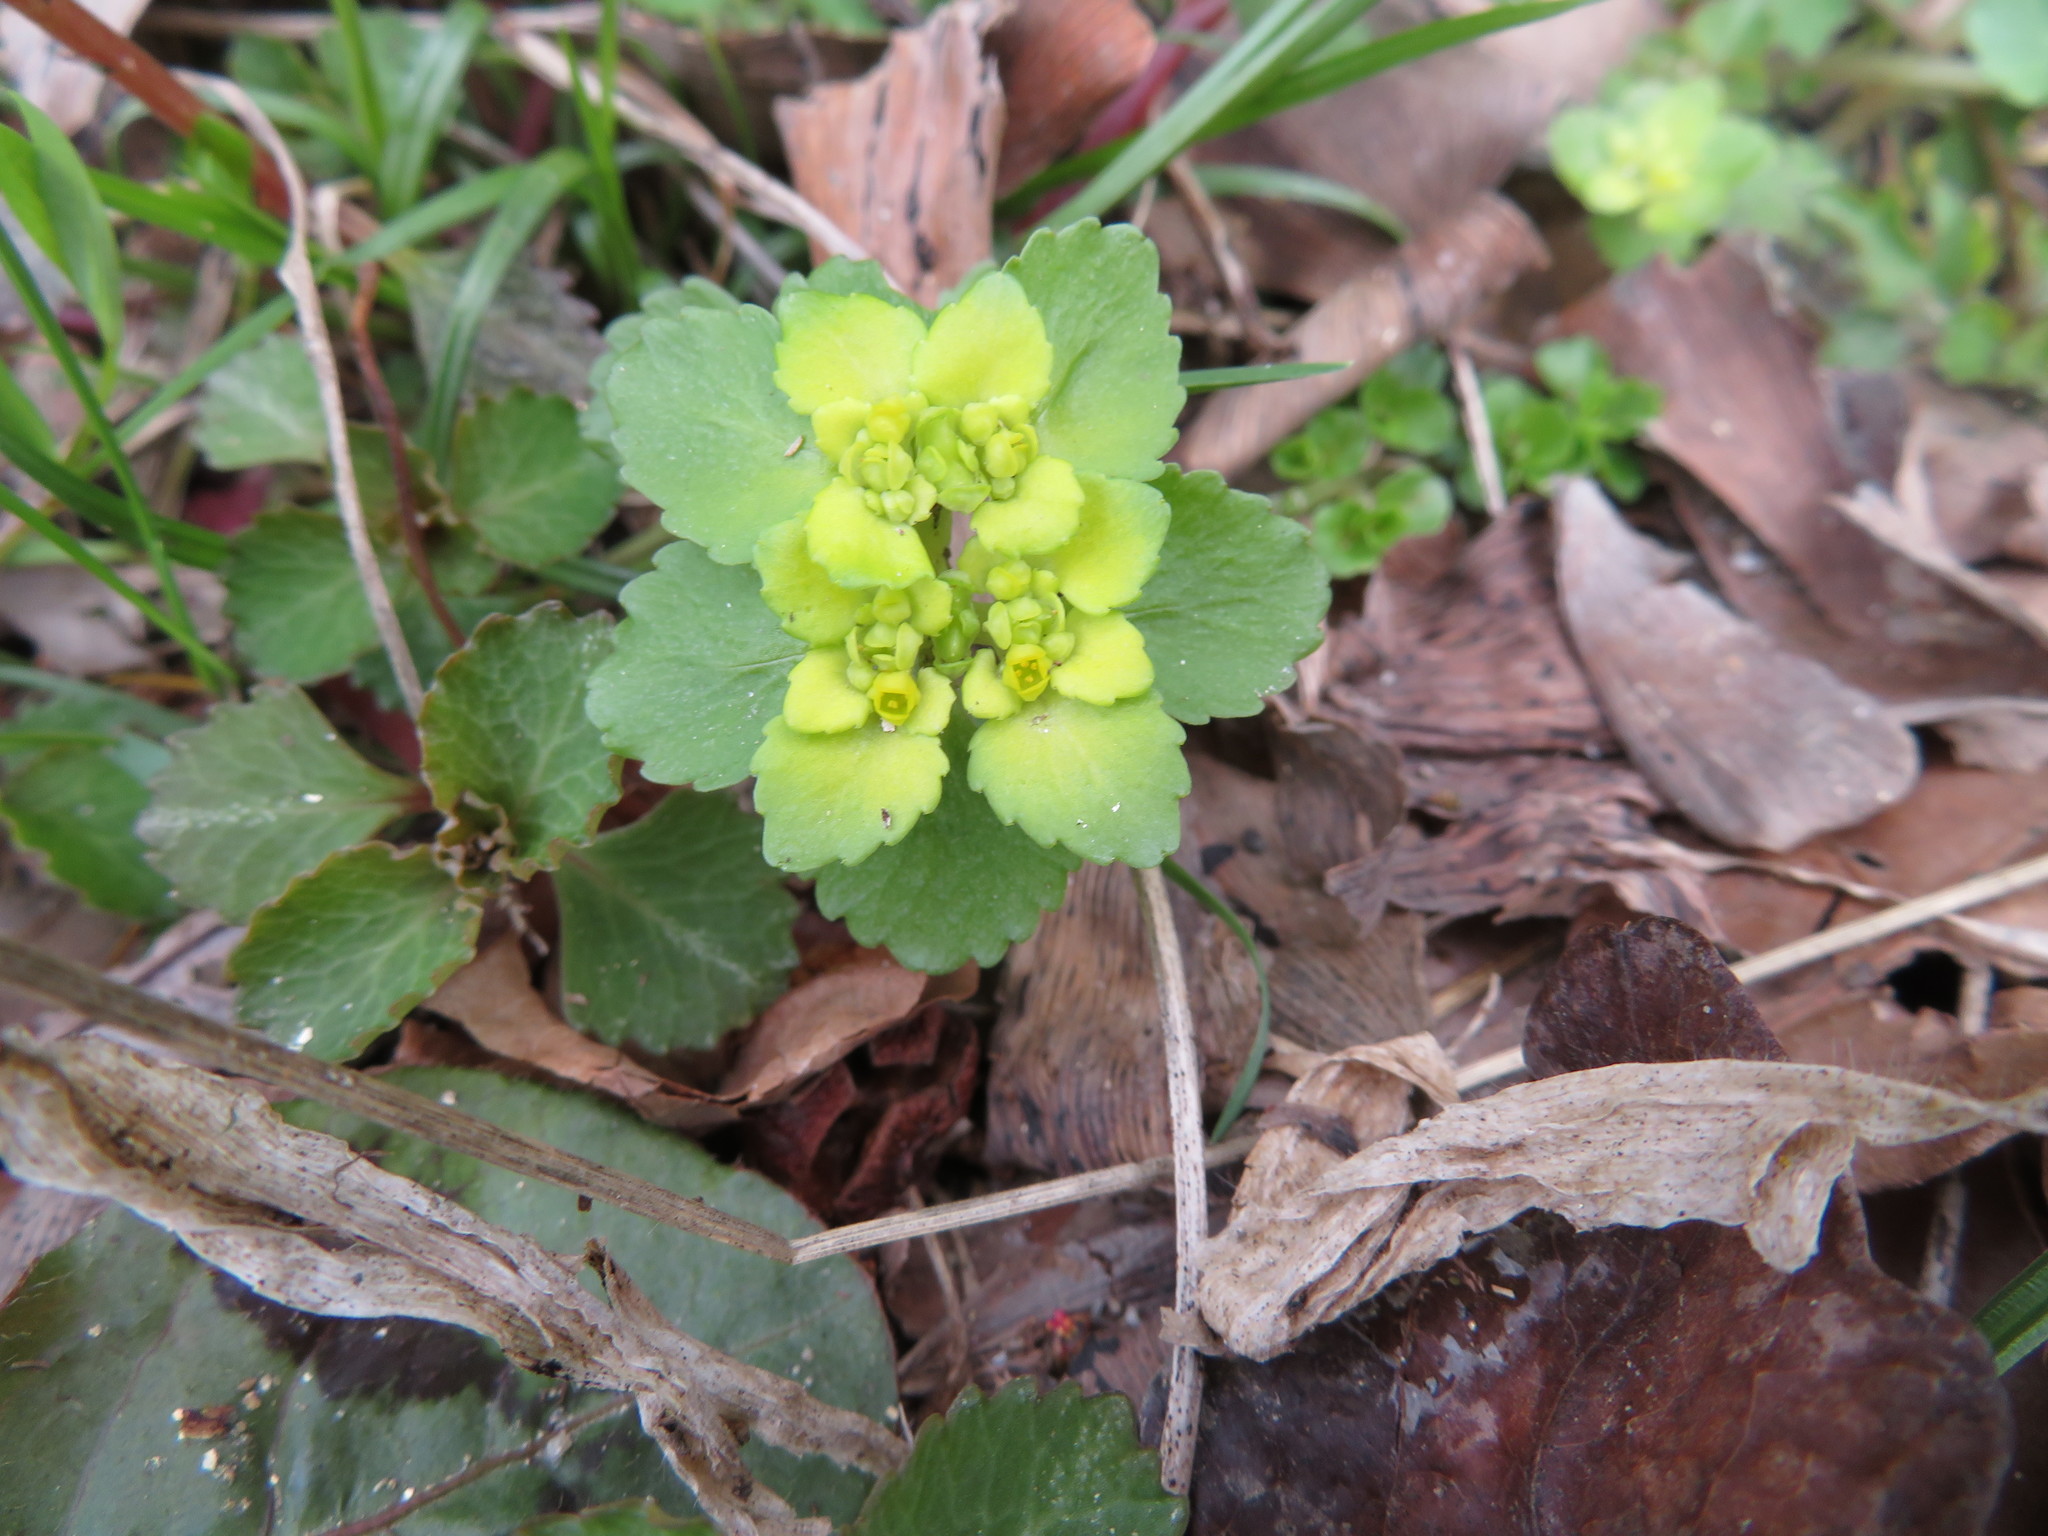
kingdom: Plantae
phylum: Tracheophyta
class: Magnoliopsida
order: Saxifragales
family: Saxifragaceae
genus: Chrysosplenium
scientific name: Chrysosplenium grayanum
